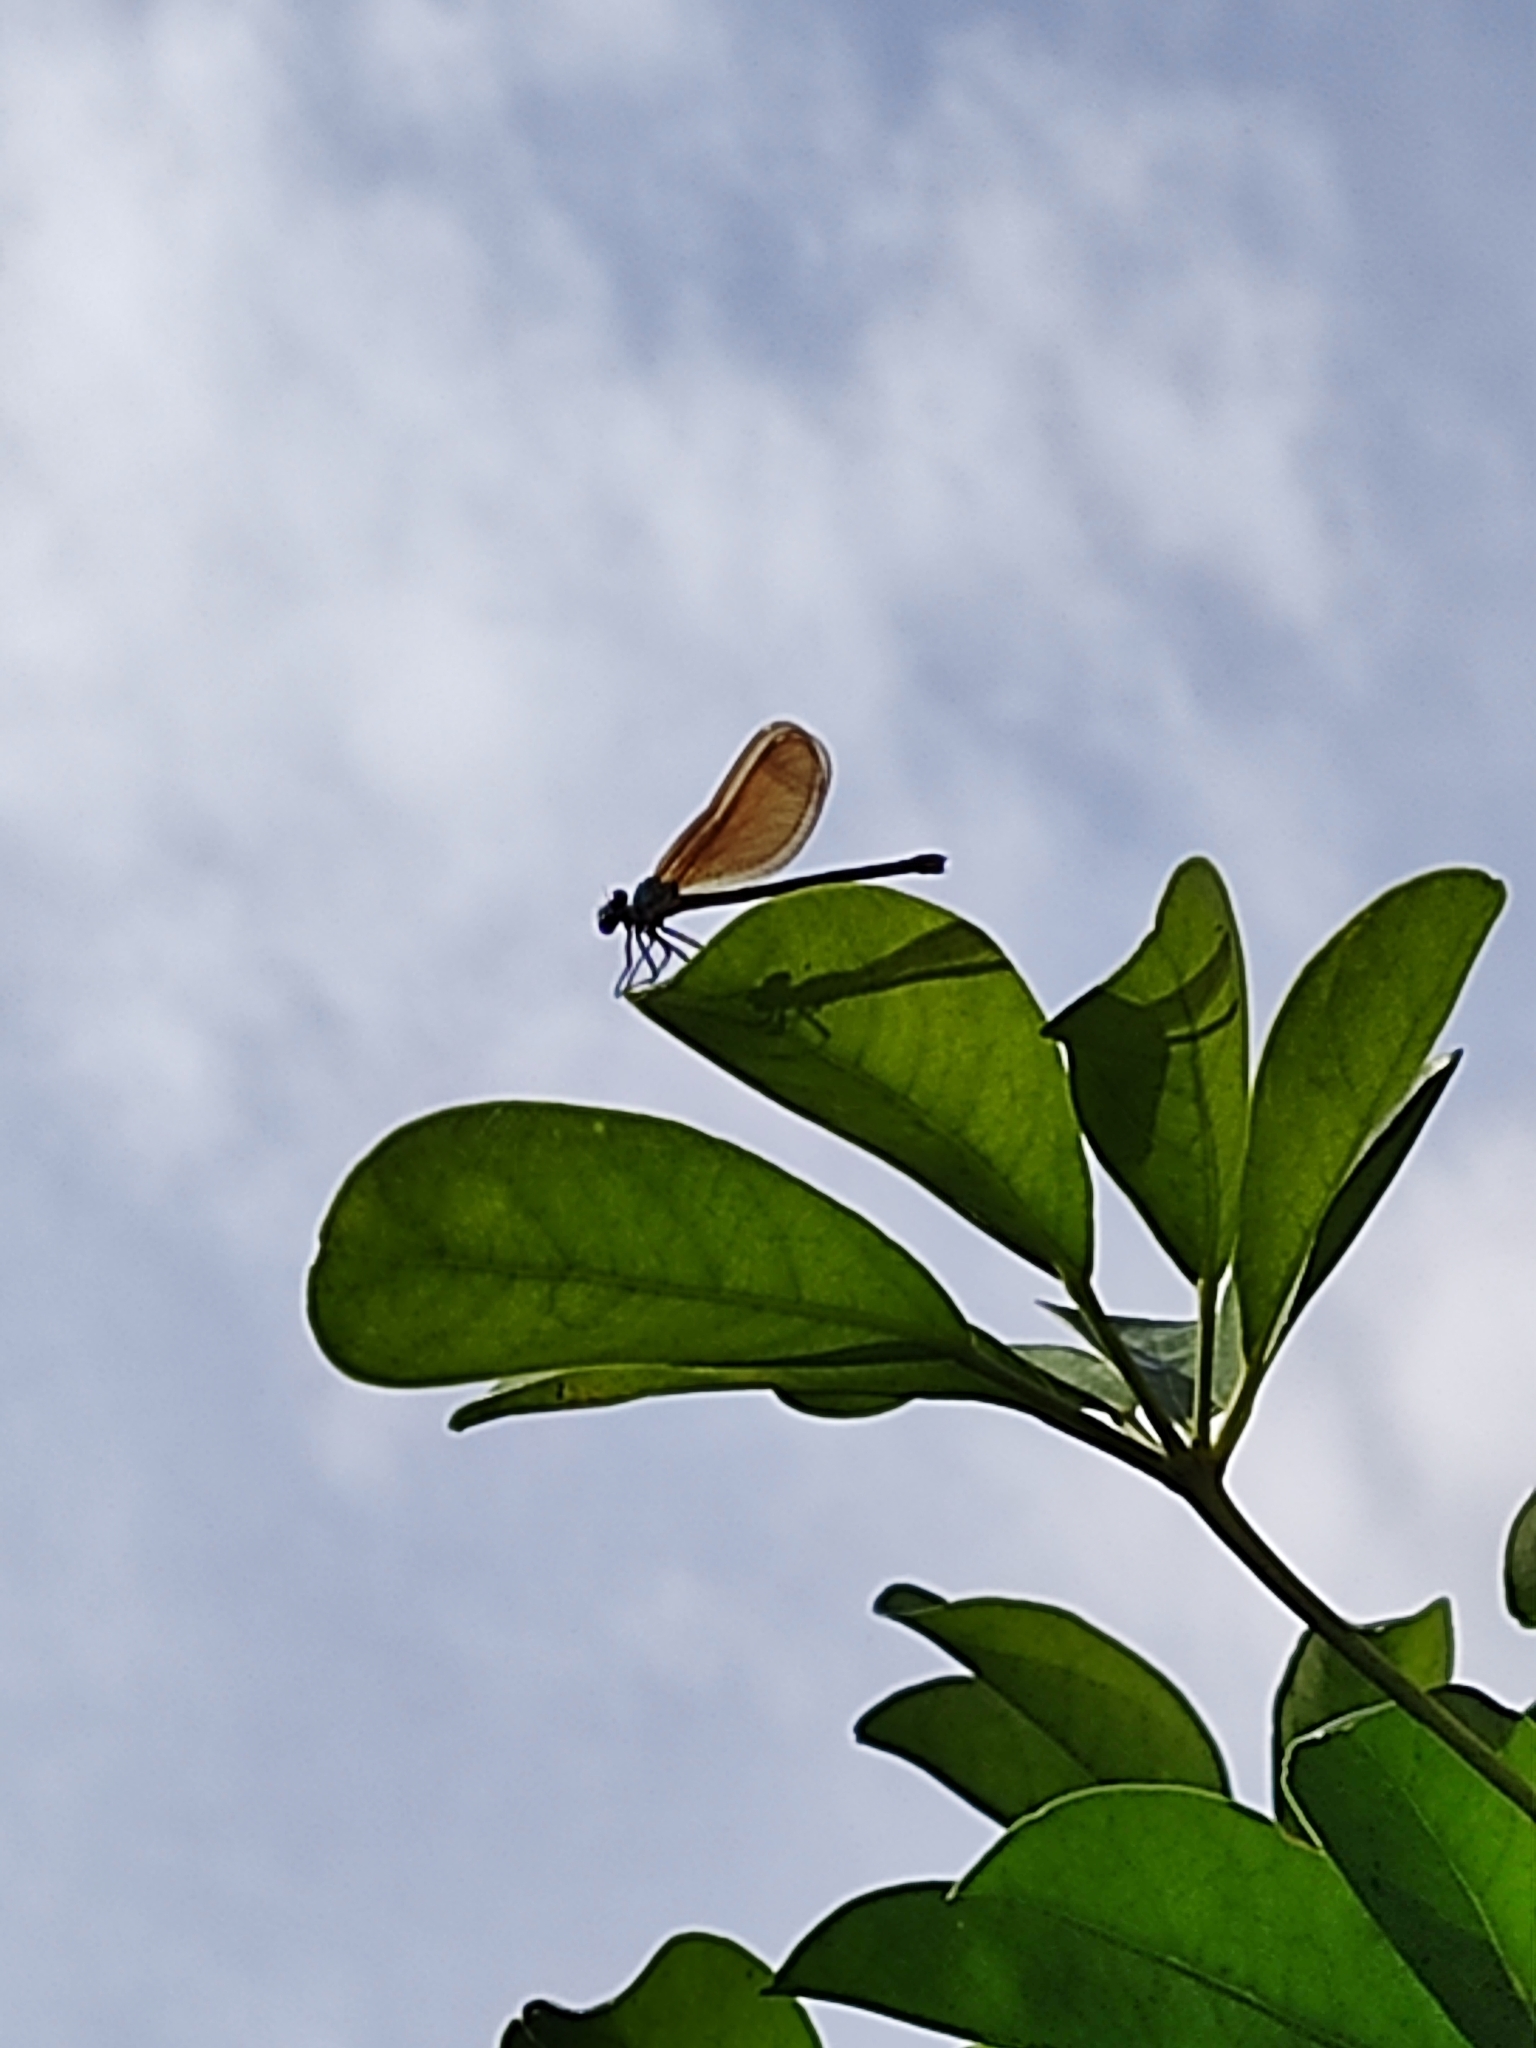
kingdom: Animalia
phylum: Arthropoda
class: Insecta
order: Odonata
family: Calopterygidae
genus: Calopteryx
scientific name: Calopteryx haemorrhoidalis
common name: Copper demoiselle
